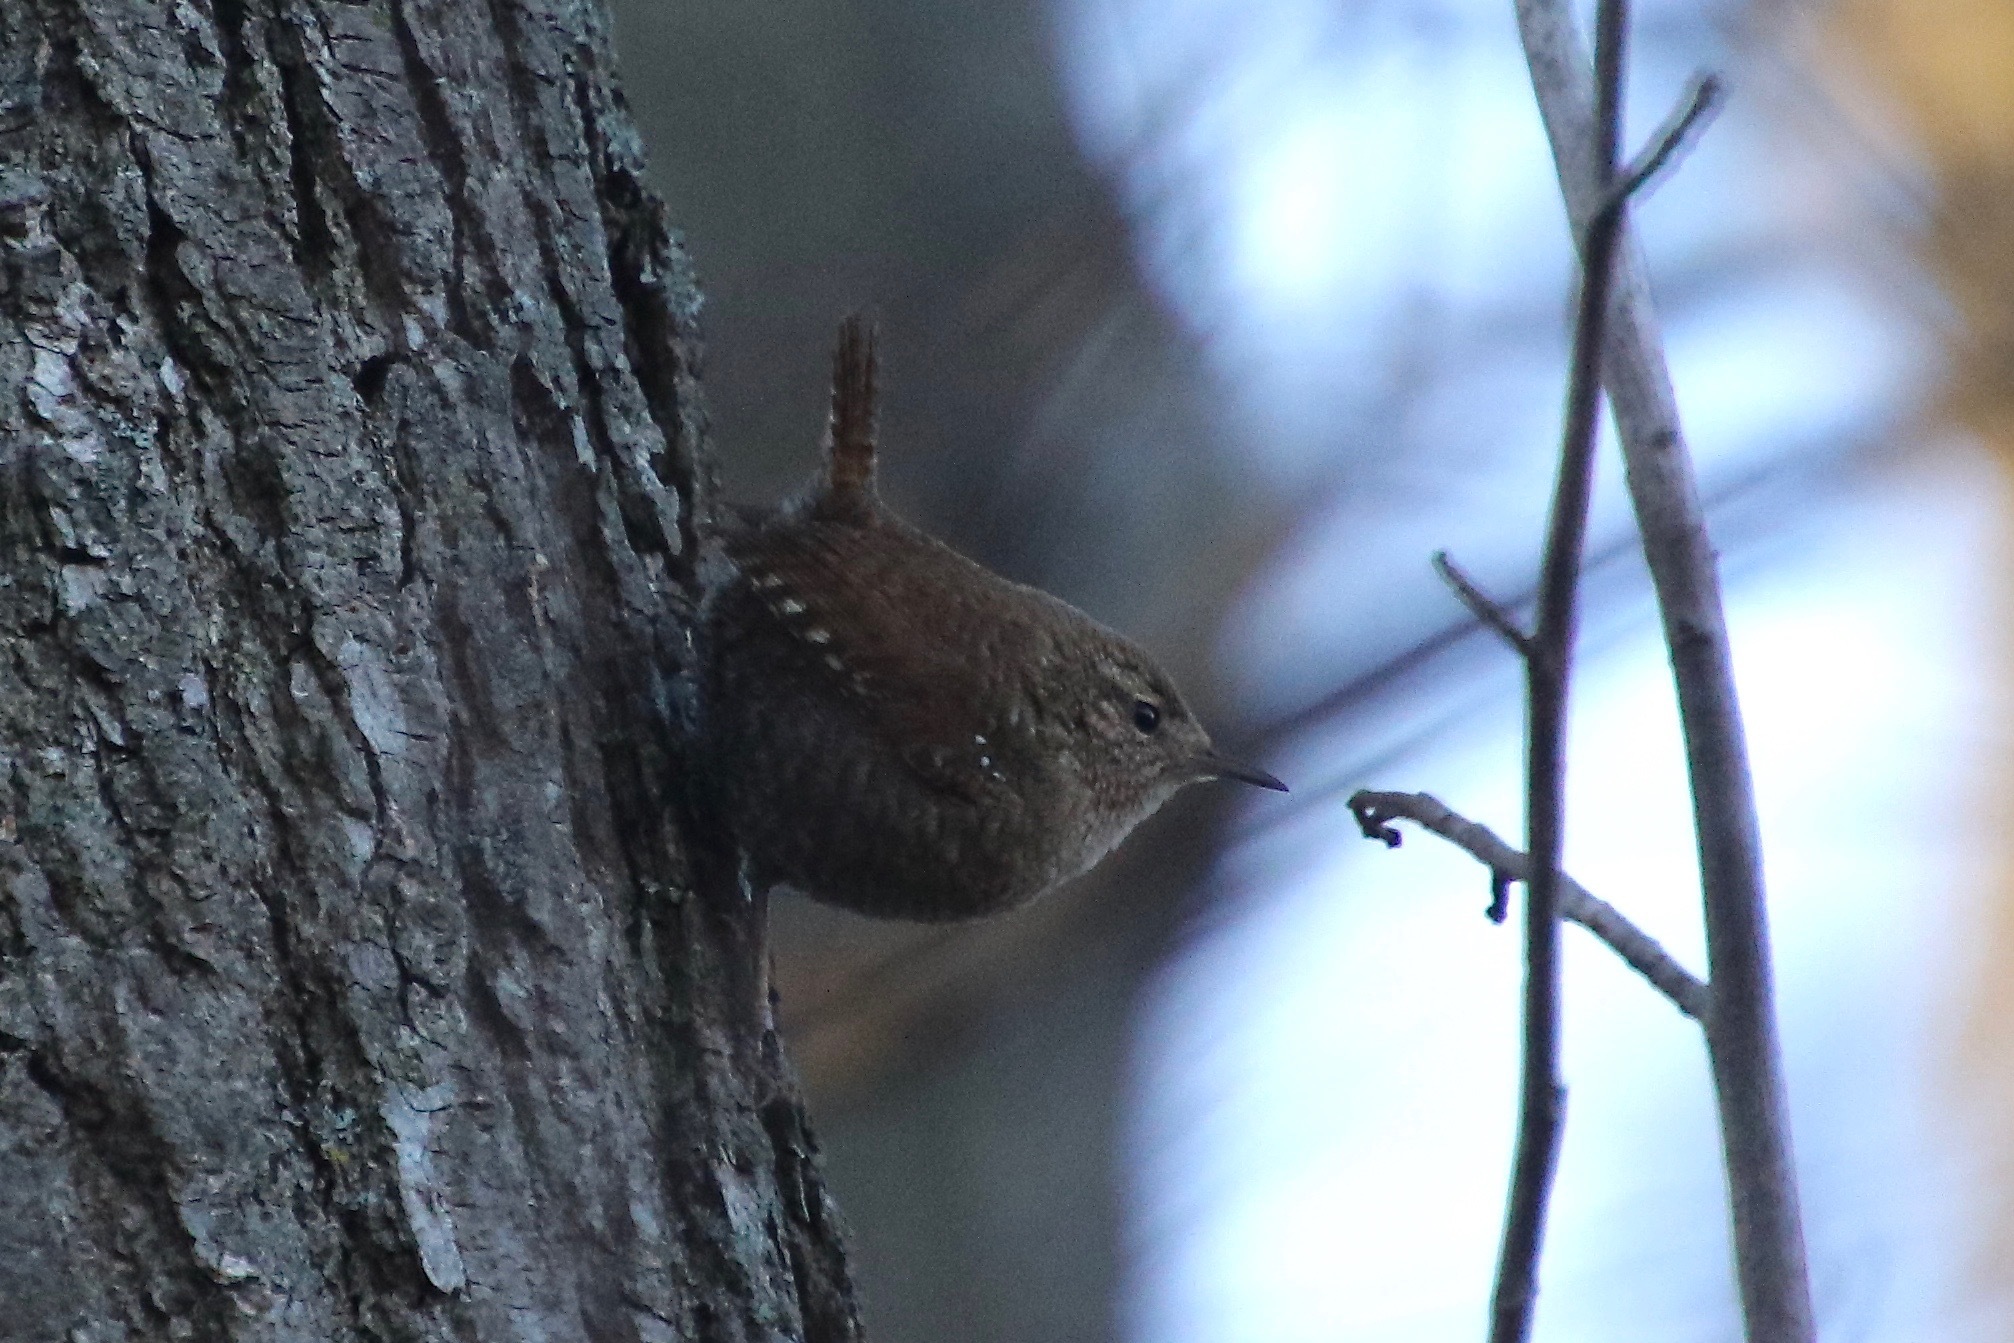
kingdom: Animalia
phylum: Chordata
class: Aves
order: Passeriformes
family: Troglodytidae
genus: Troglodytes
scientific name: Troglodytes hiemalis
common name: Winter wren
